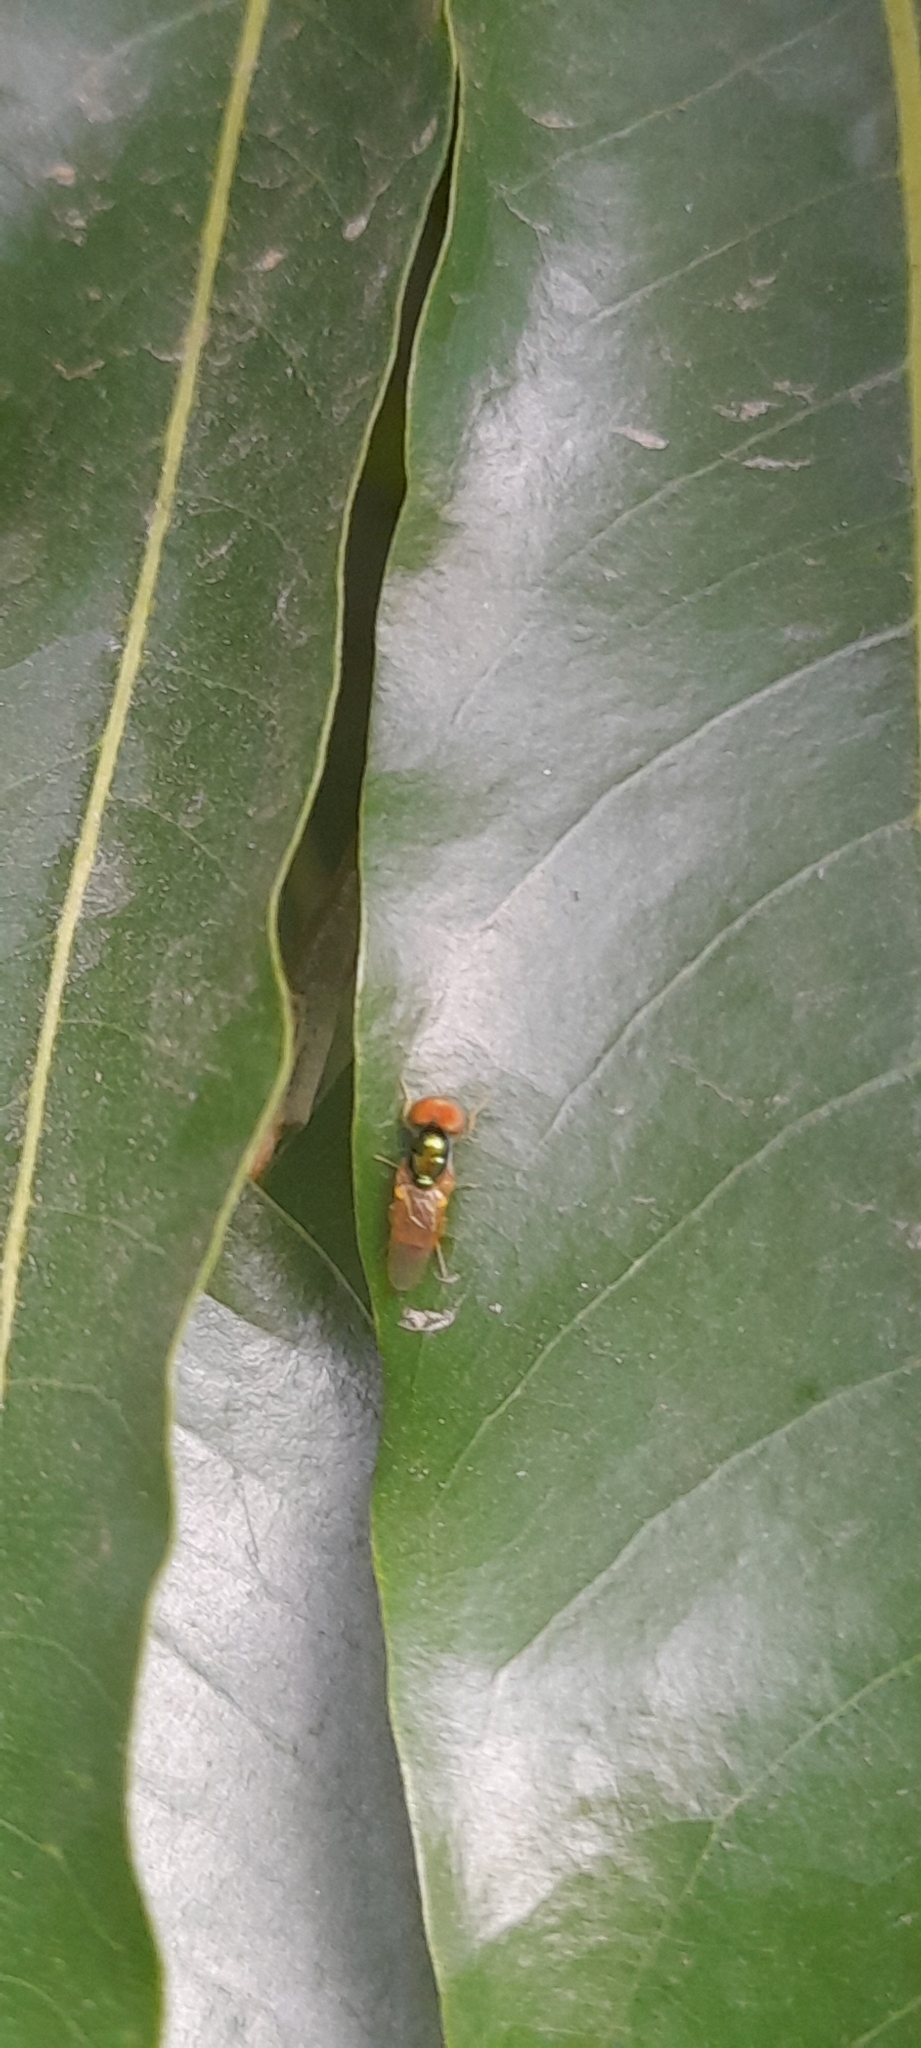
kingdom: Animalia
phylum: Arthropoda
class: Insecta
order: Diptera
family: Stratiomyidae
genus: Microchrysa
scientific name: Microchrysa flaviventris
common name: Soldier fly
